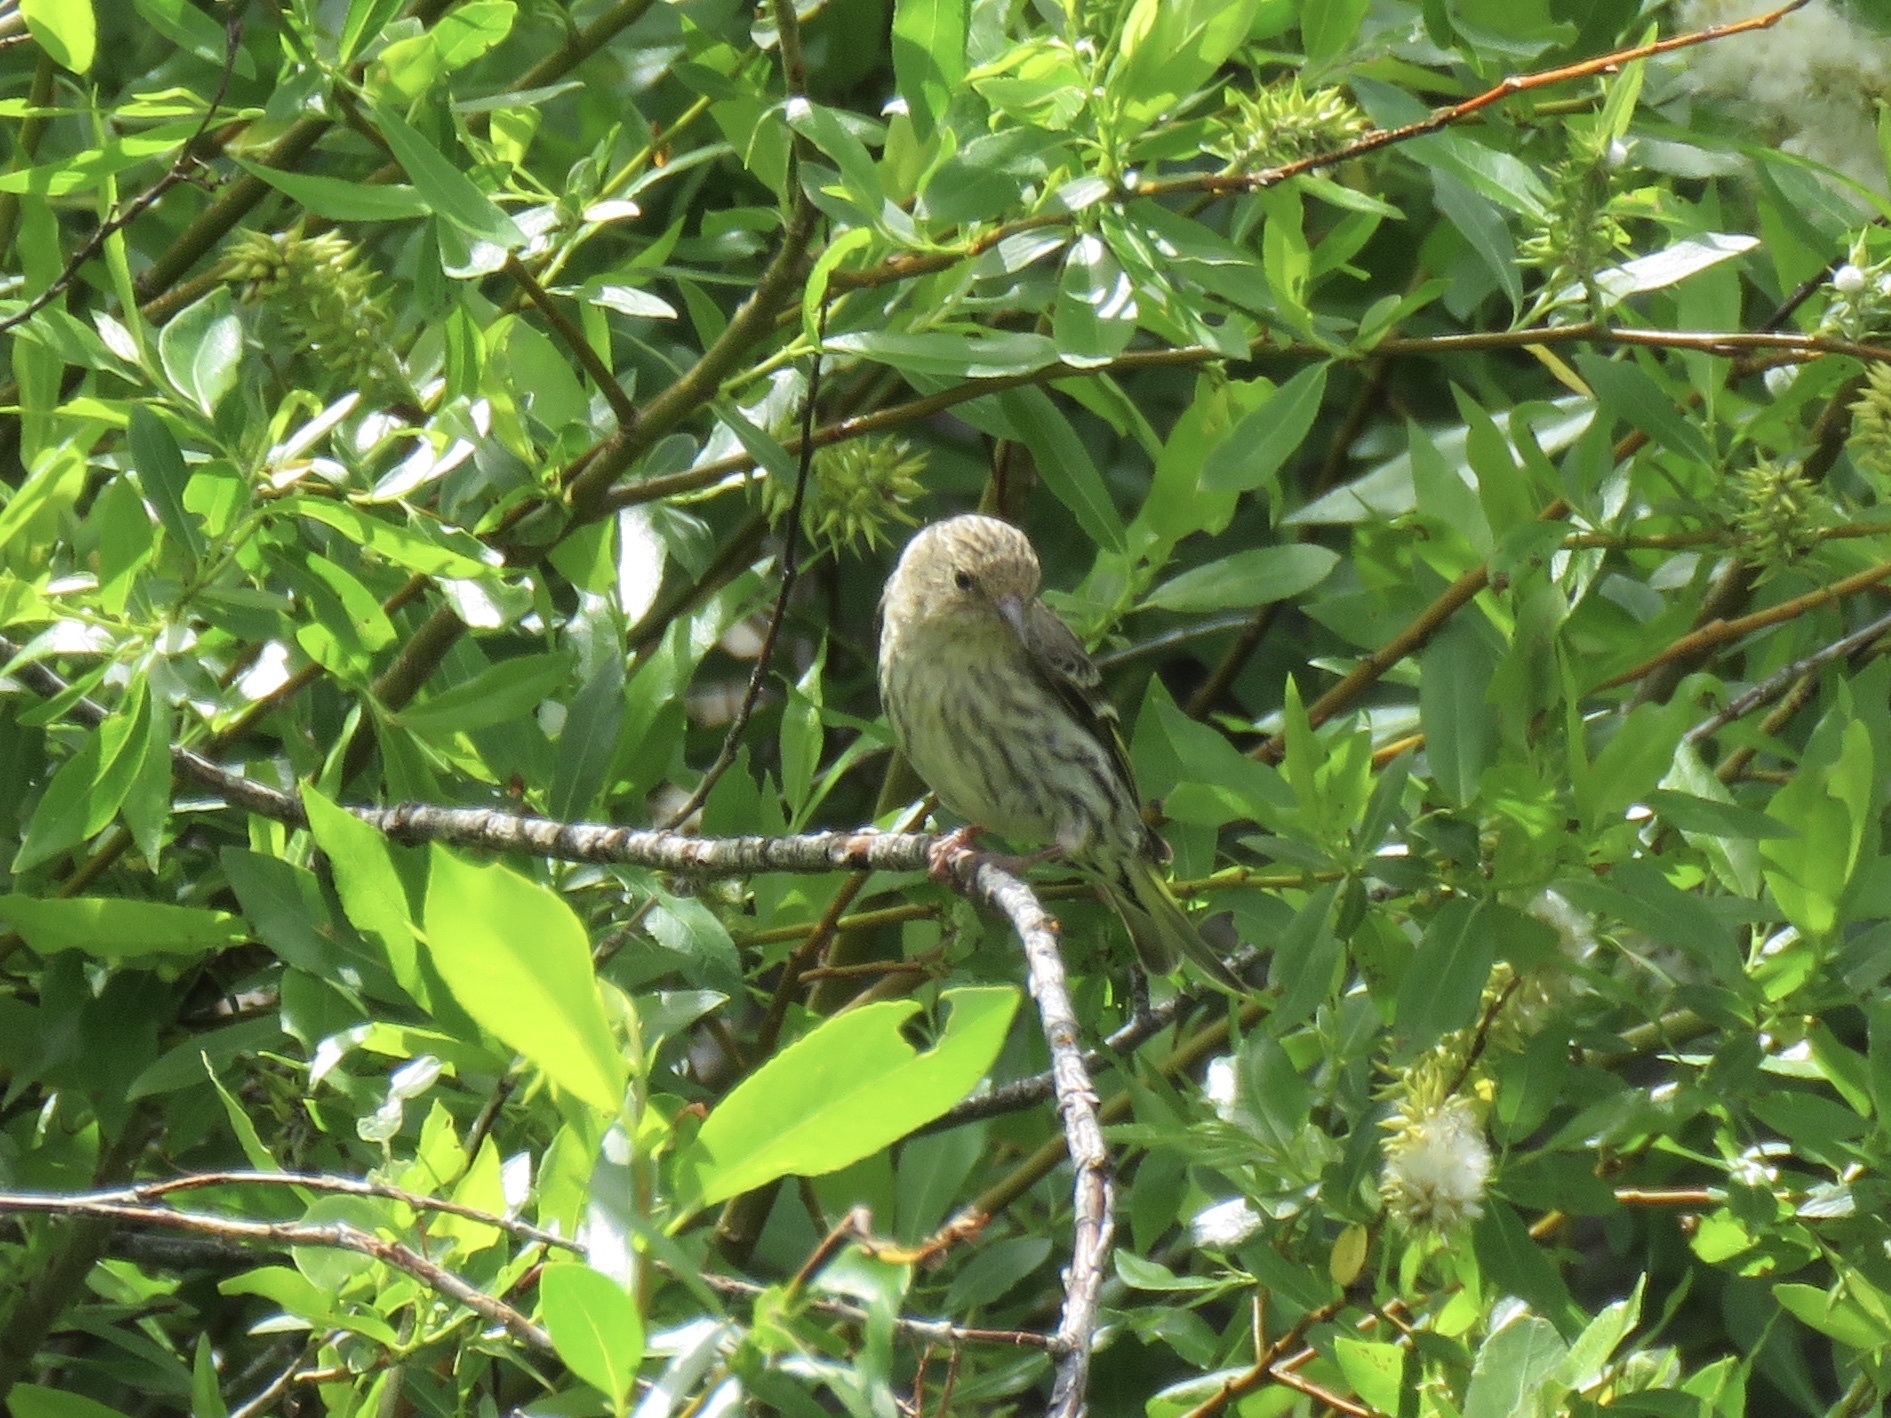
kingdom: Animalia
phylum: Chordata
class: Aves
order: Passeriformes
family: Fringillidae
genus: Spinus
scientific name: Spinus pinus
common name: Pine siskin
